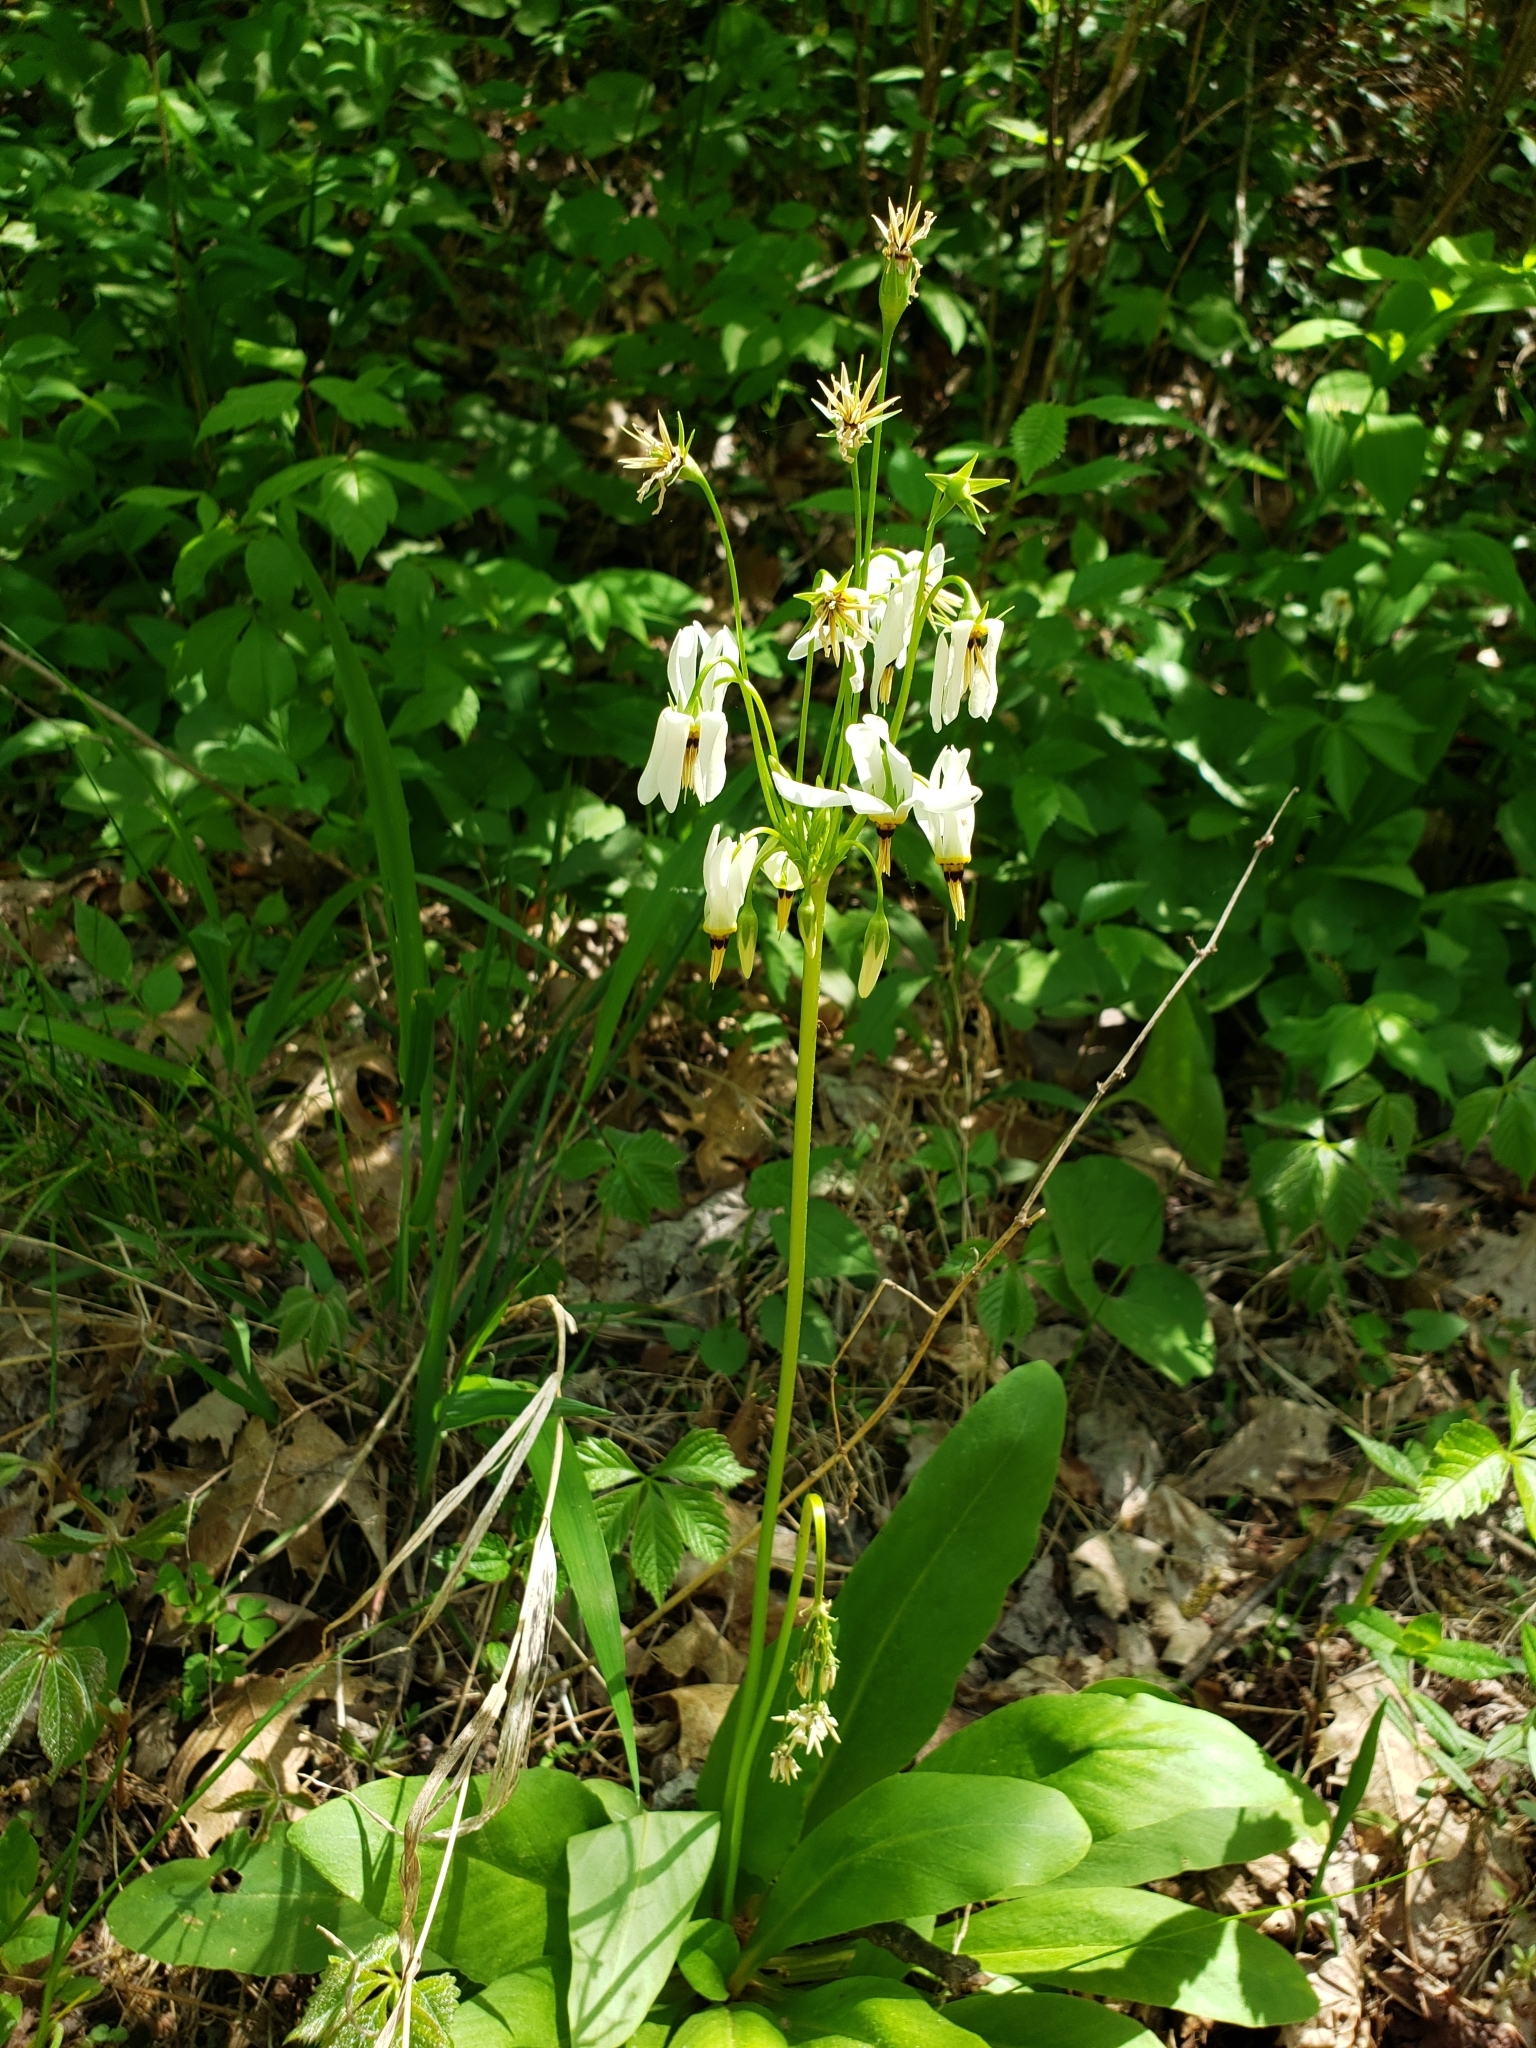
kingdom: Plantae
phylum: Tracheophyta
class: Magnoliopsida
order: Ericales
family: Primulaceae
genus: Dodecatheon
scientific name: Dodecatheon meadia
